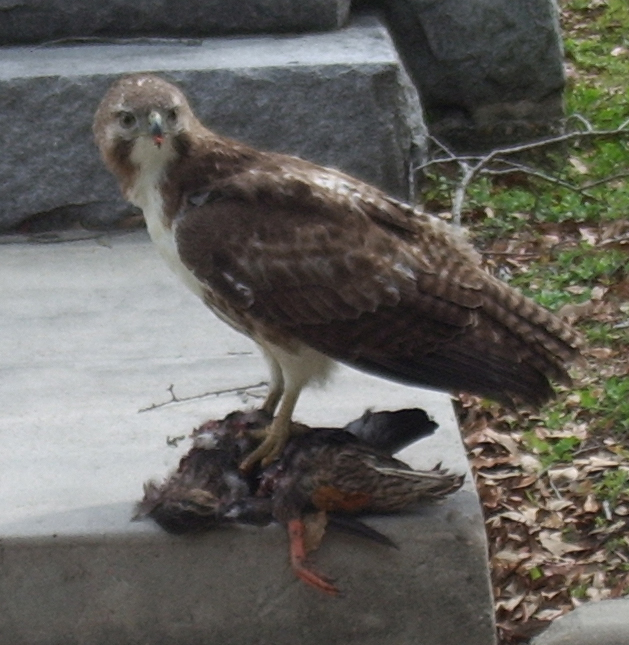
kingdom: Animalia
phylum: Chordata
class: Aves
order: Accipitriformes
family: Accipitridae
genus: Buteo
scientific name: Buteo jamaicensis
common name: Red-tailed hawk
